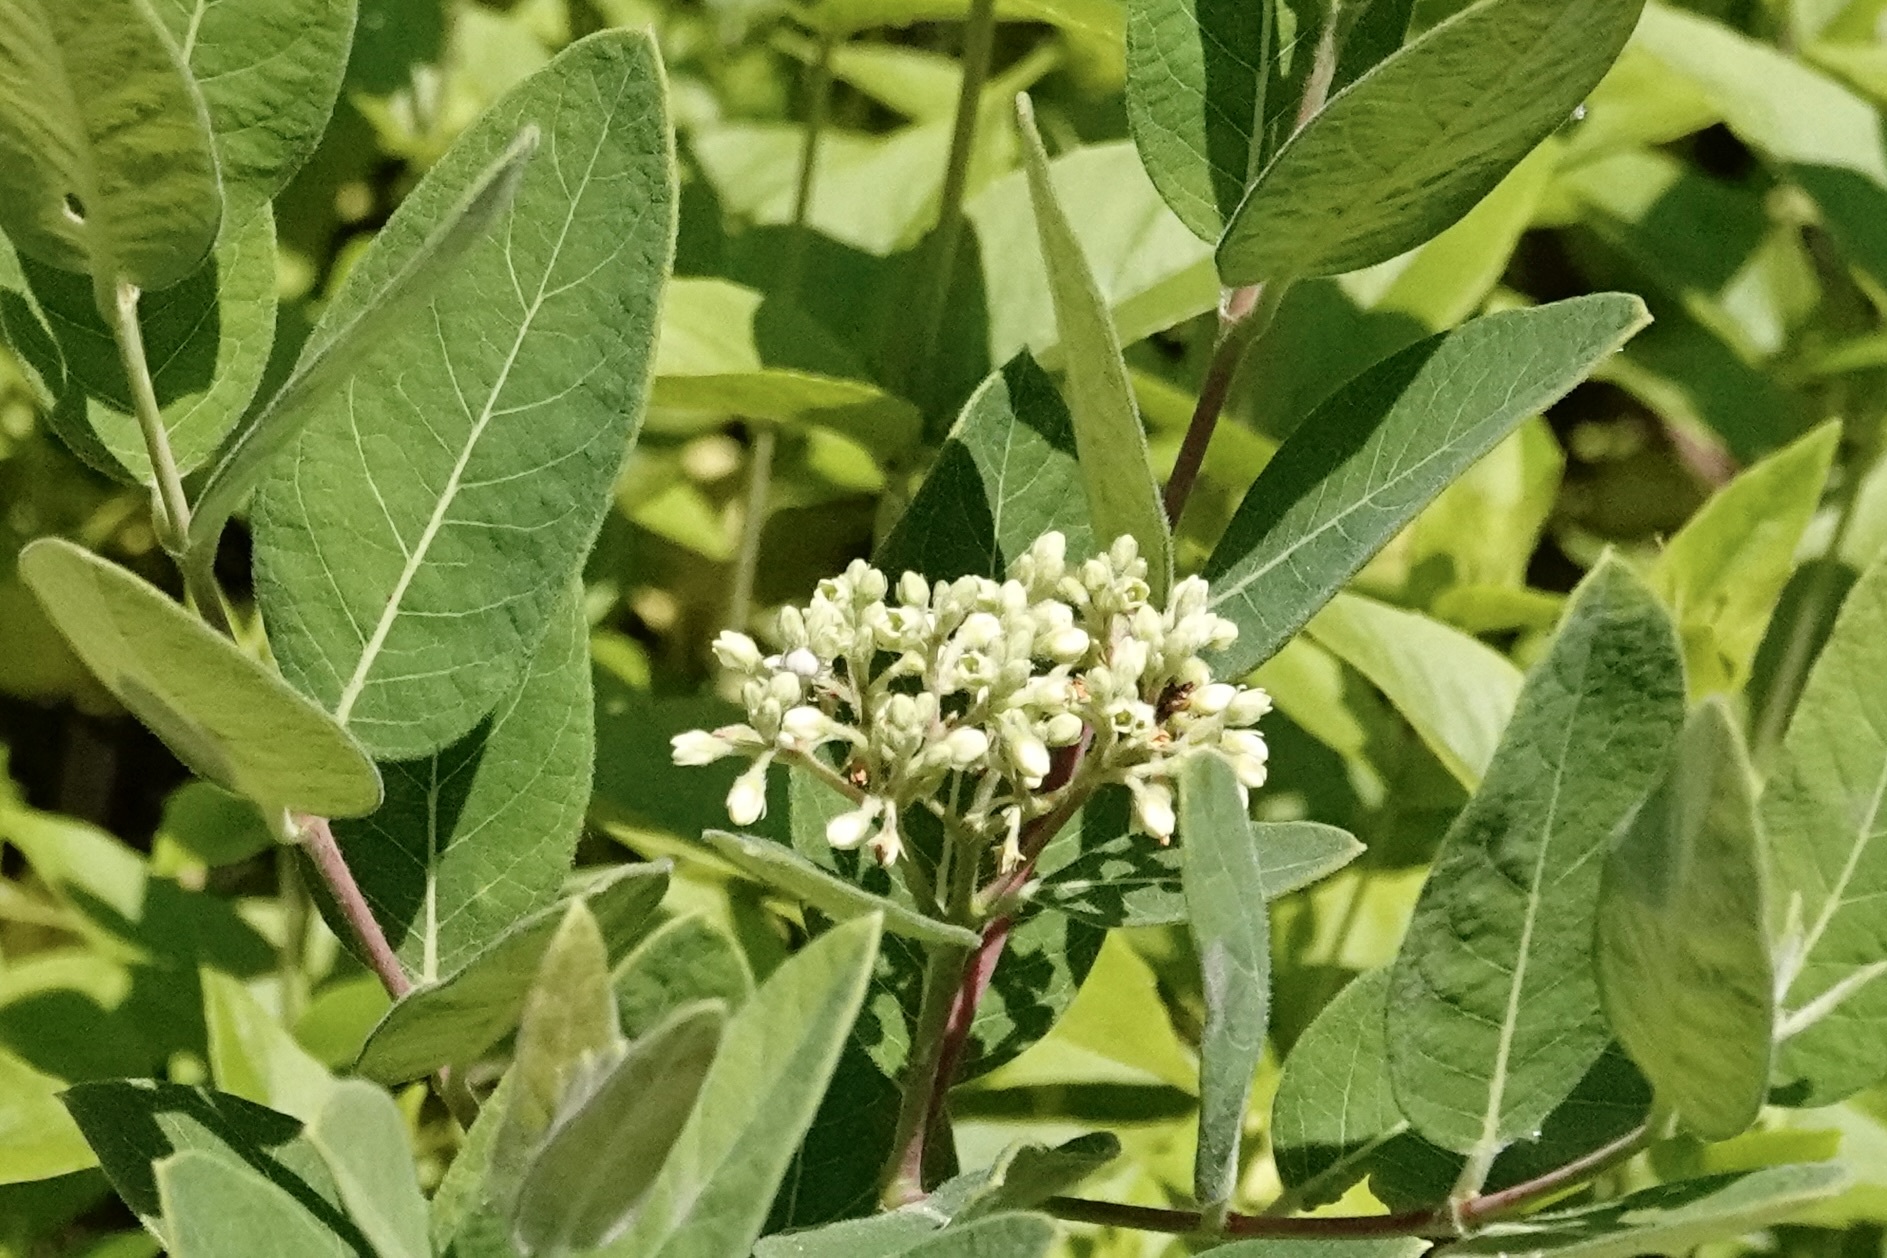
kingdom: Plantae
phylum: Tracheophyta
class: Magnoliopsida
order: Gentianales
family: Apocynaceae
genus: Apocynum
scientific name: Apocynum cannabinum
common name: Hemp dogbane
